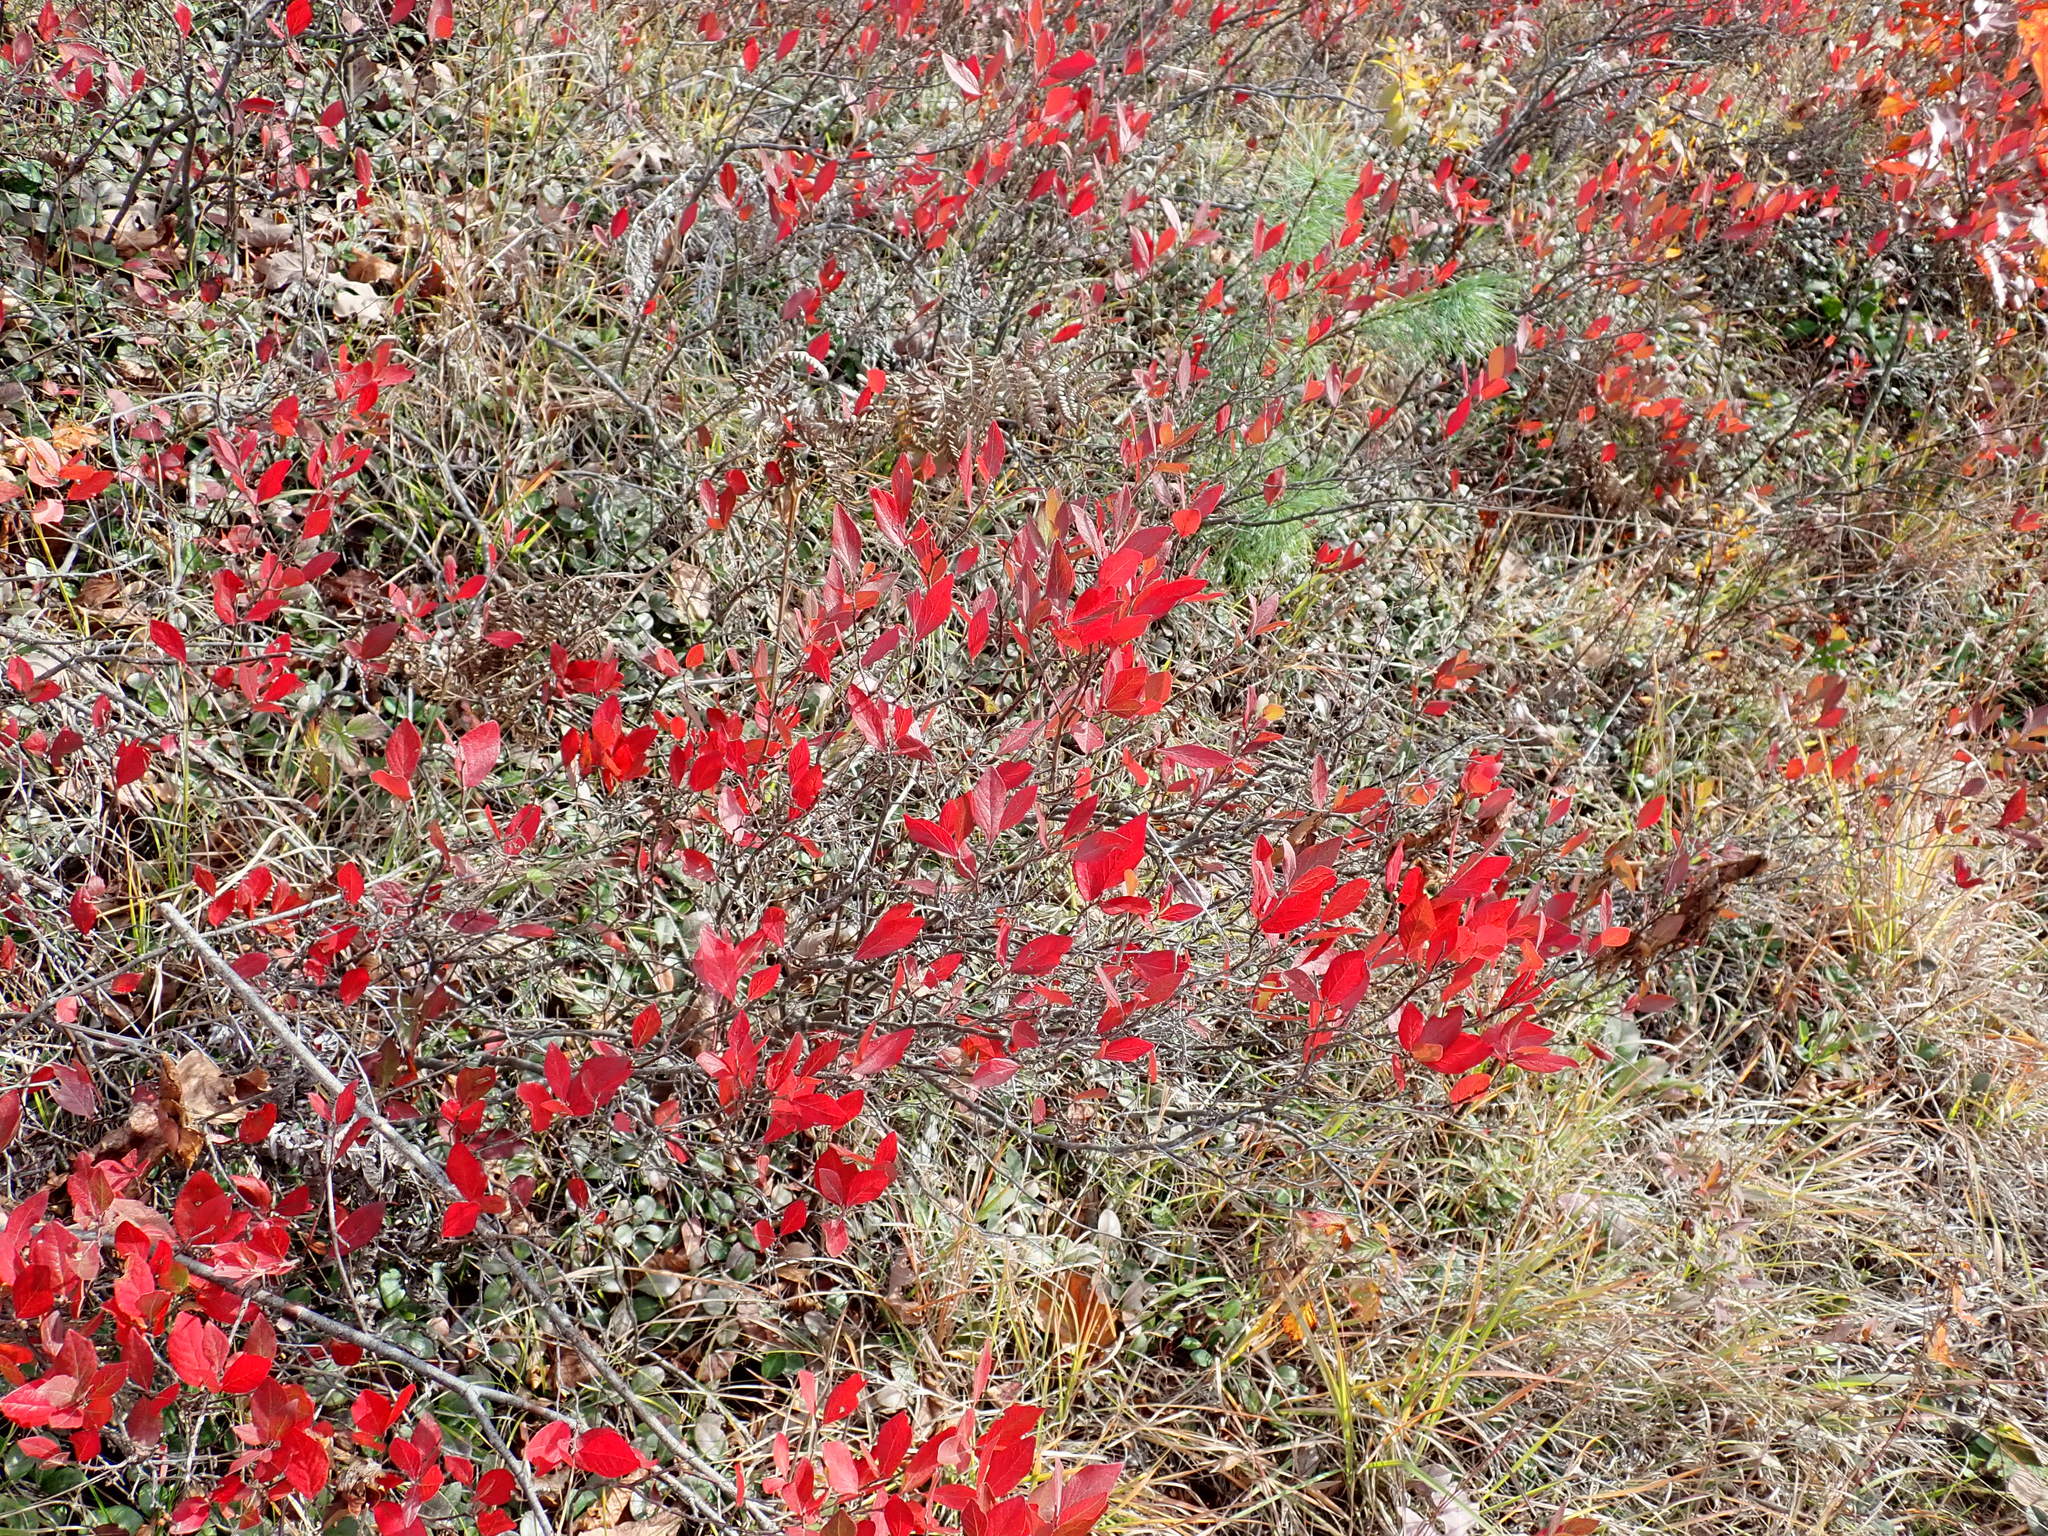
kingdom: Plantae
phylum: Tracheophyta
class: Magnoliopsida
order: Ericales
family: Ericaceae
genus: Gaylussacia
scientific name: Gaylussacia baccata
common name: Black huckleberry
